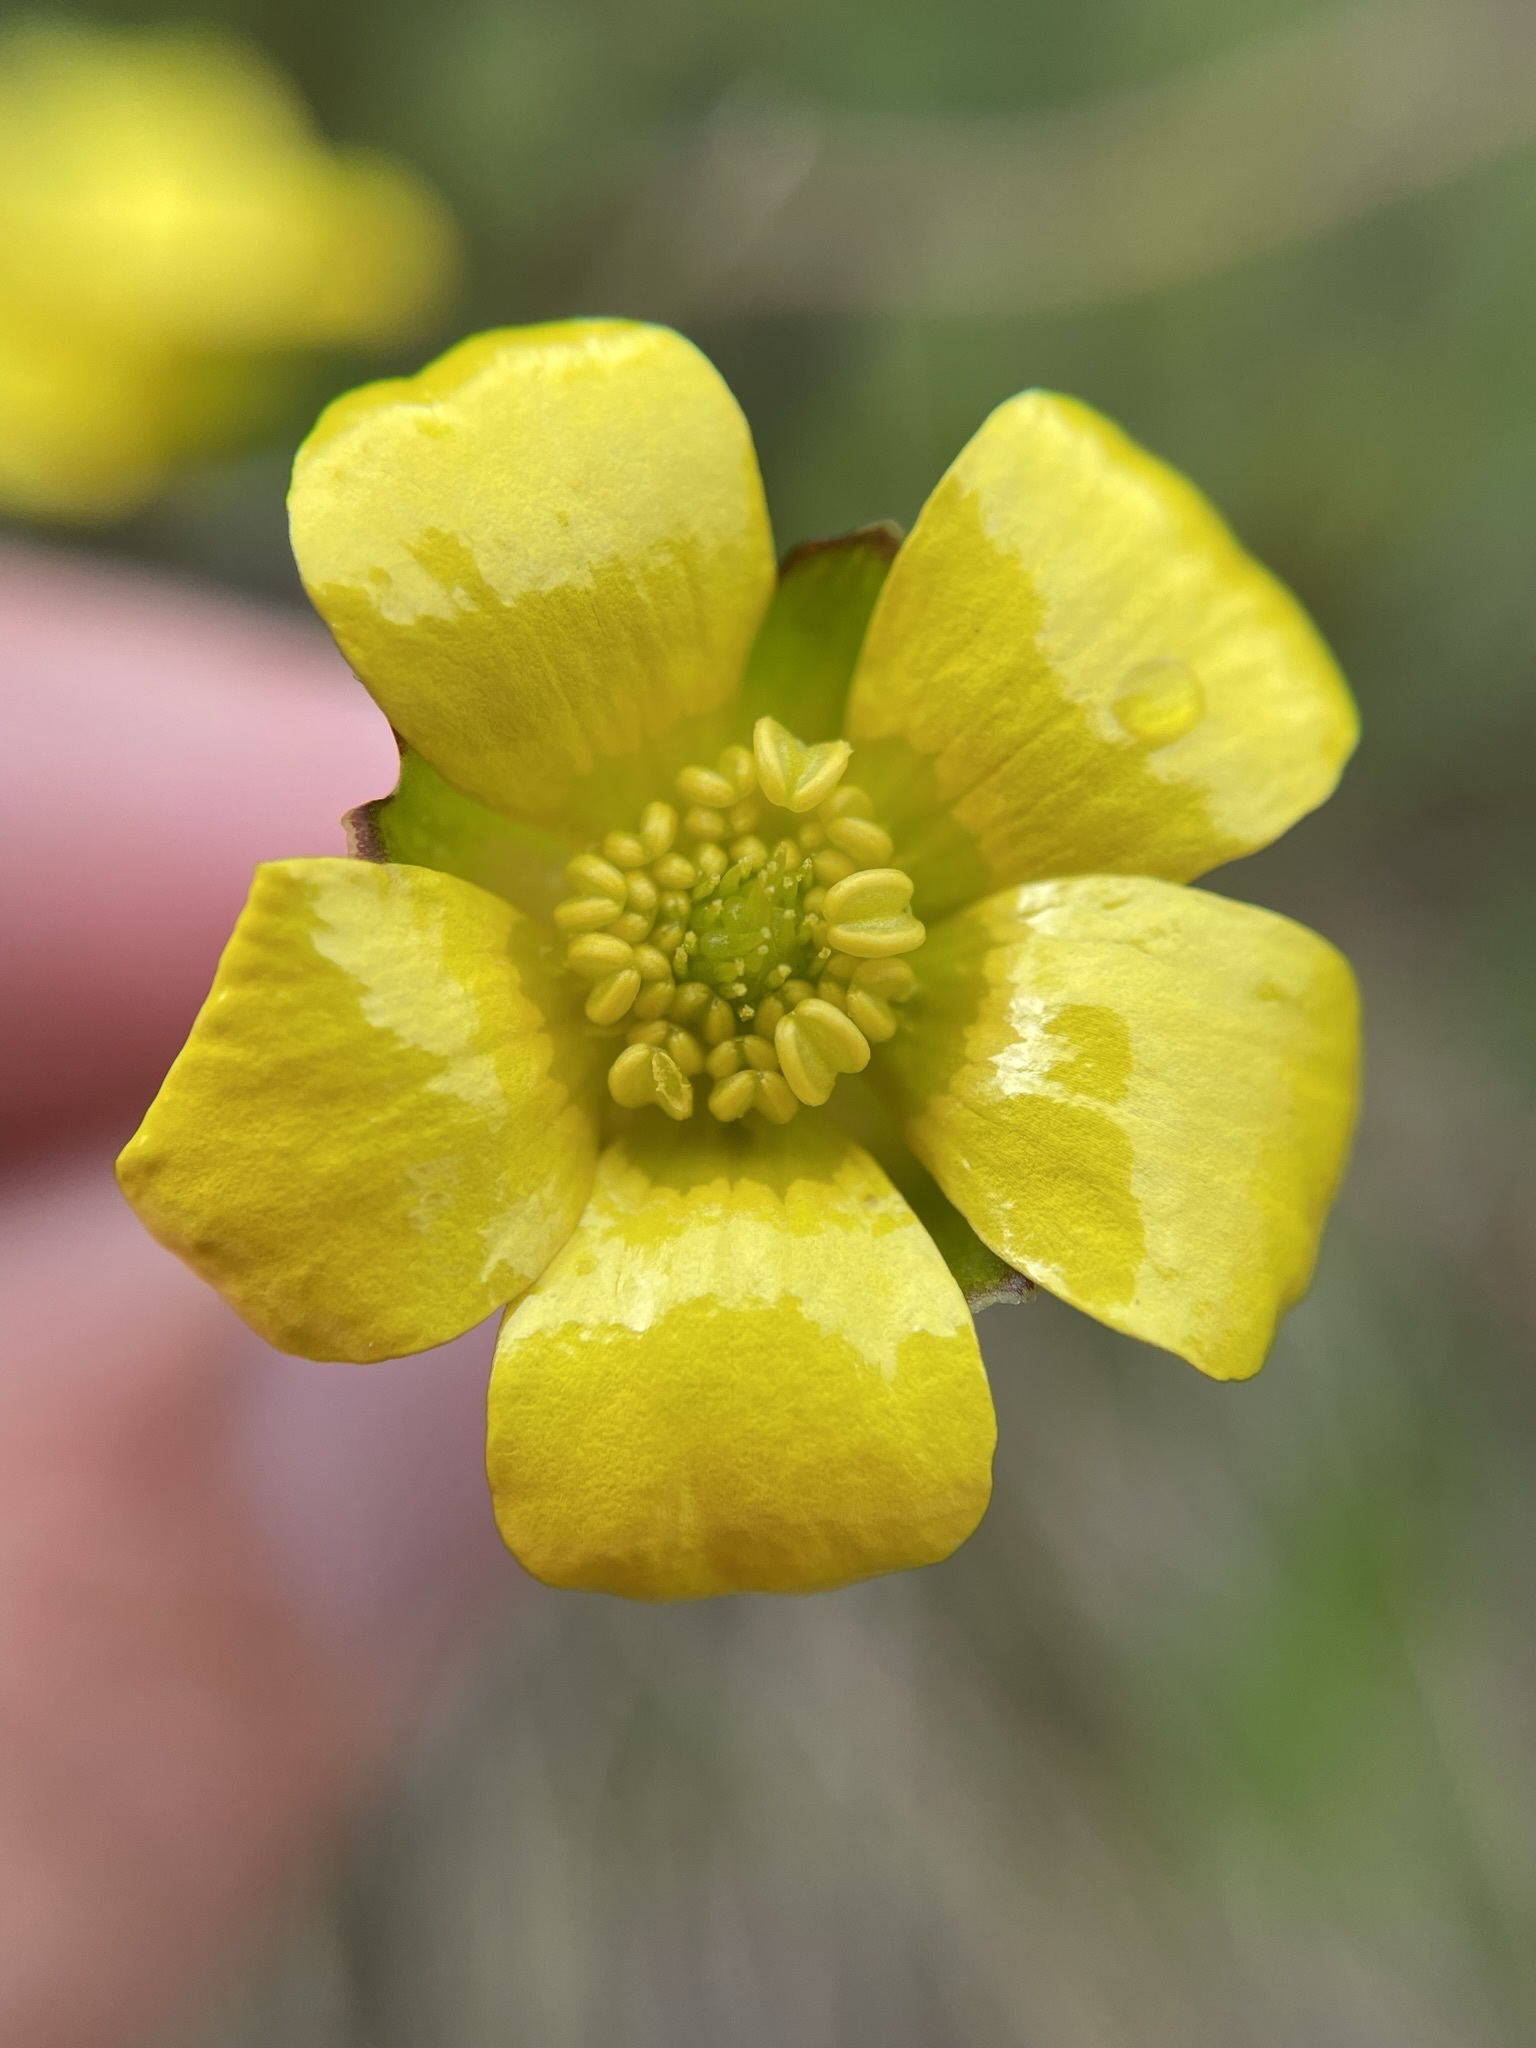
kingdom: Plantae
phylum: Tracheophyta
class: Magnoliopsida
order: Ranunculales
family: Ranunculaceae
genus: Ranunculus
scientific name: Ranunculus enysii
